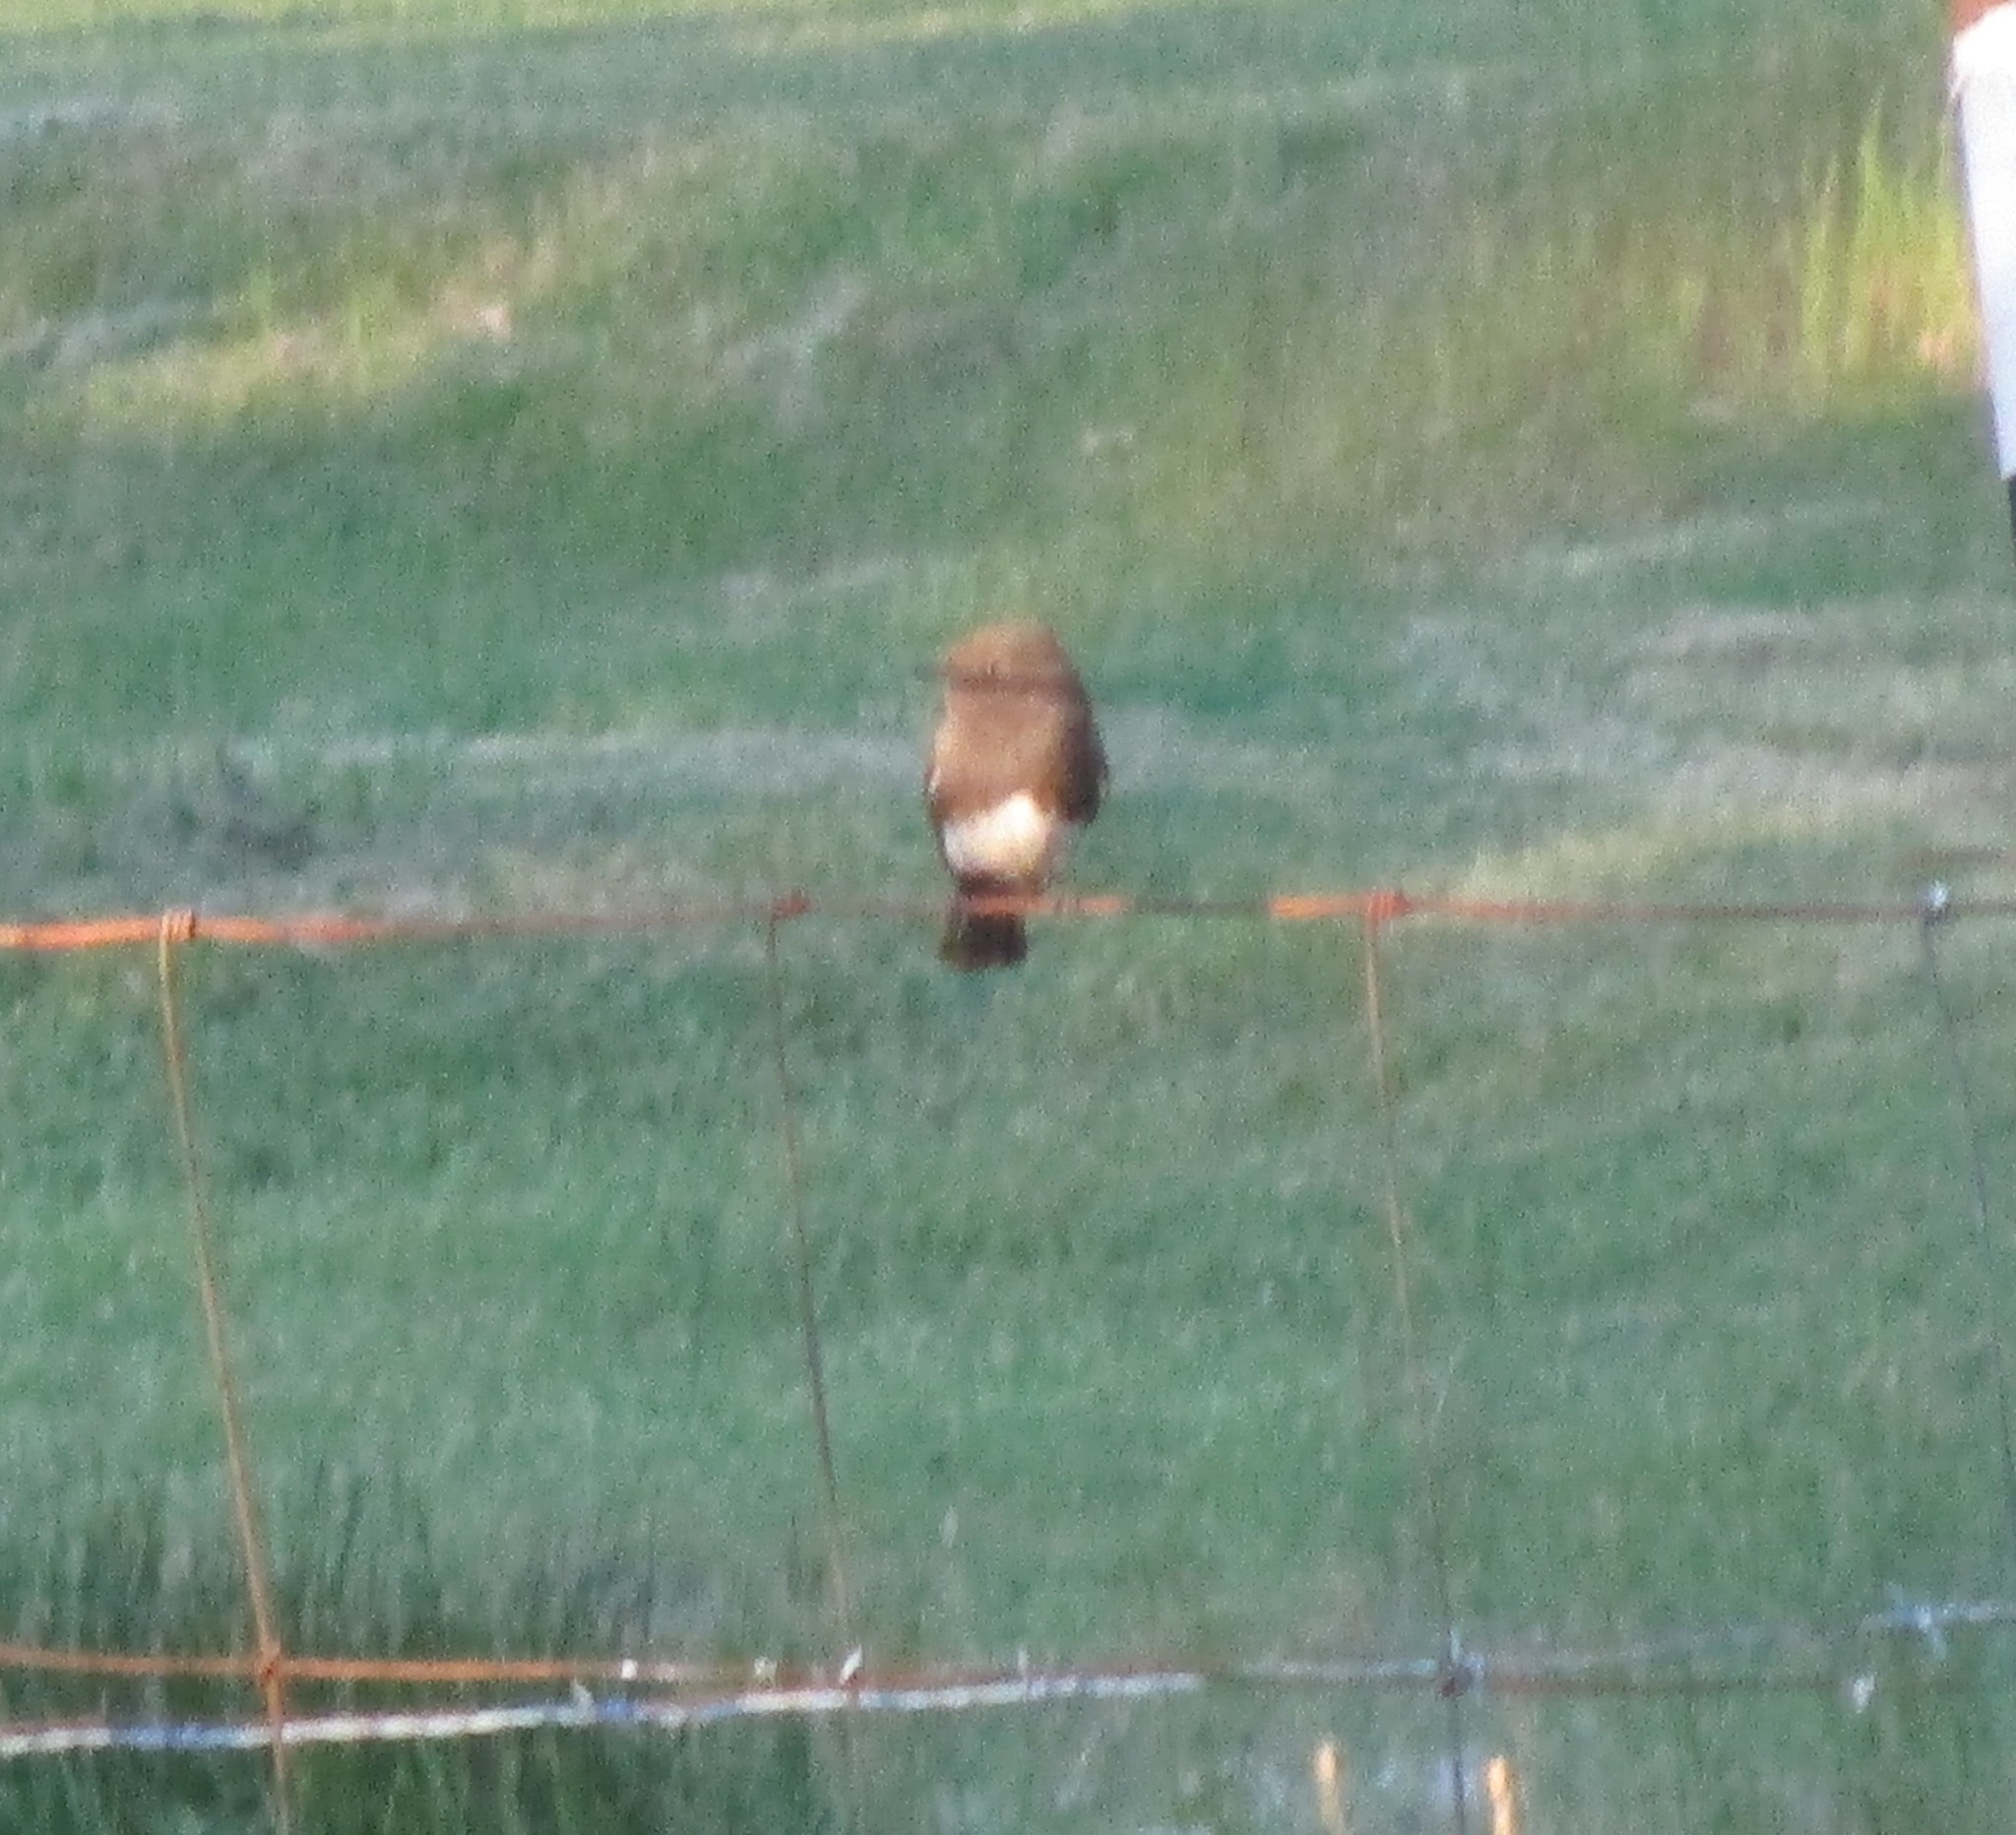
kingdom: Animalia
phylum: Chordata
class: Aves
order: Passeriformes
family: Tyrannidae
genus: Sayornis
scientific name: Sayornis nigricans
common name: Black phoebe
